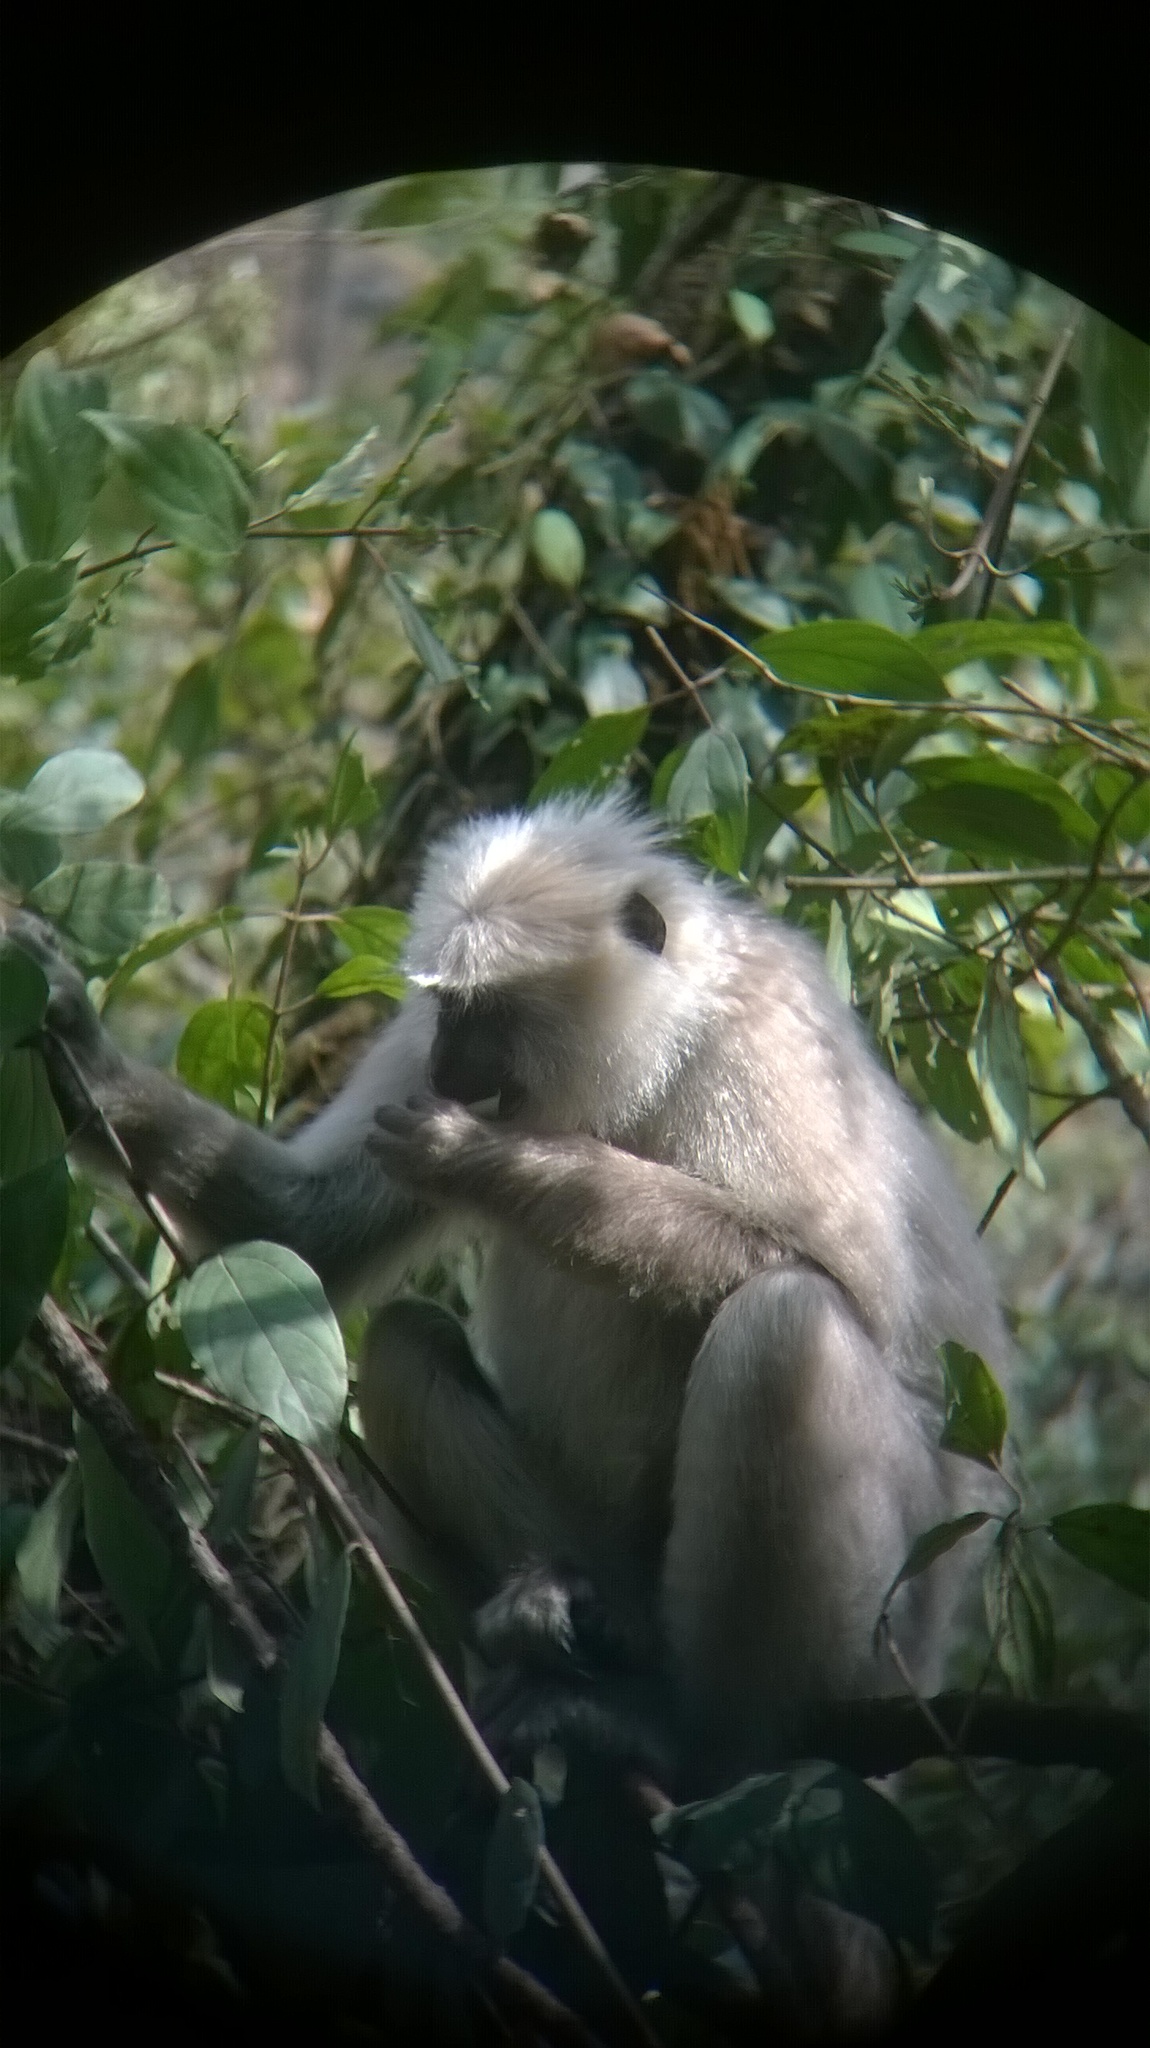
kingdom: Animalia
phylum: Chordata
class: Mammalia
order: Primates
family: Cercopithecidae
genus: Semnopithecus
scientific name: Semnopithecus schistaceus
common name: Nepal gray langur
